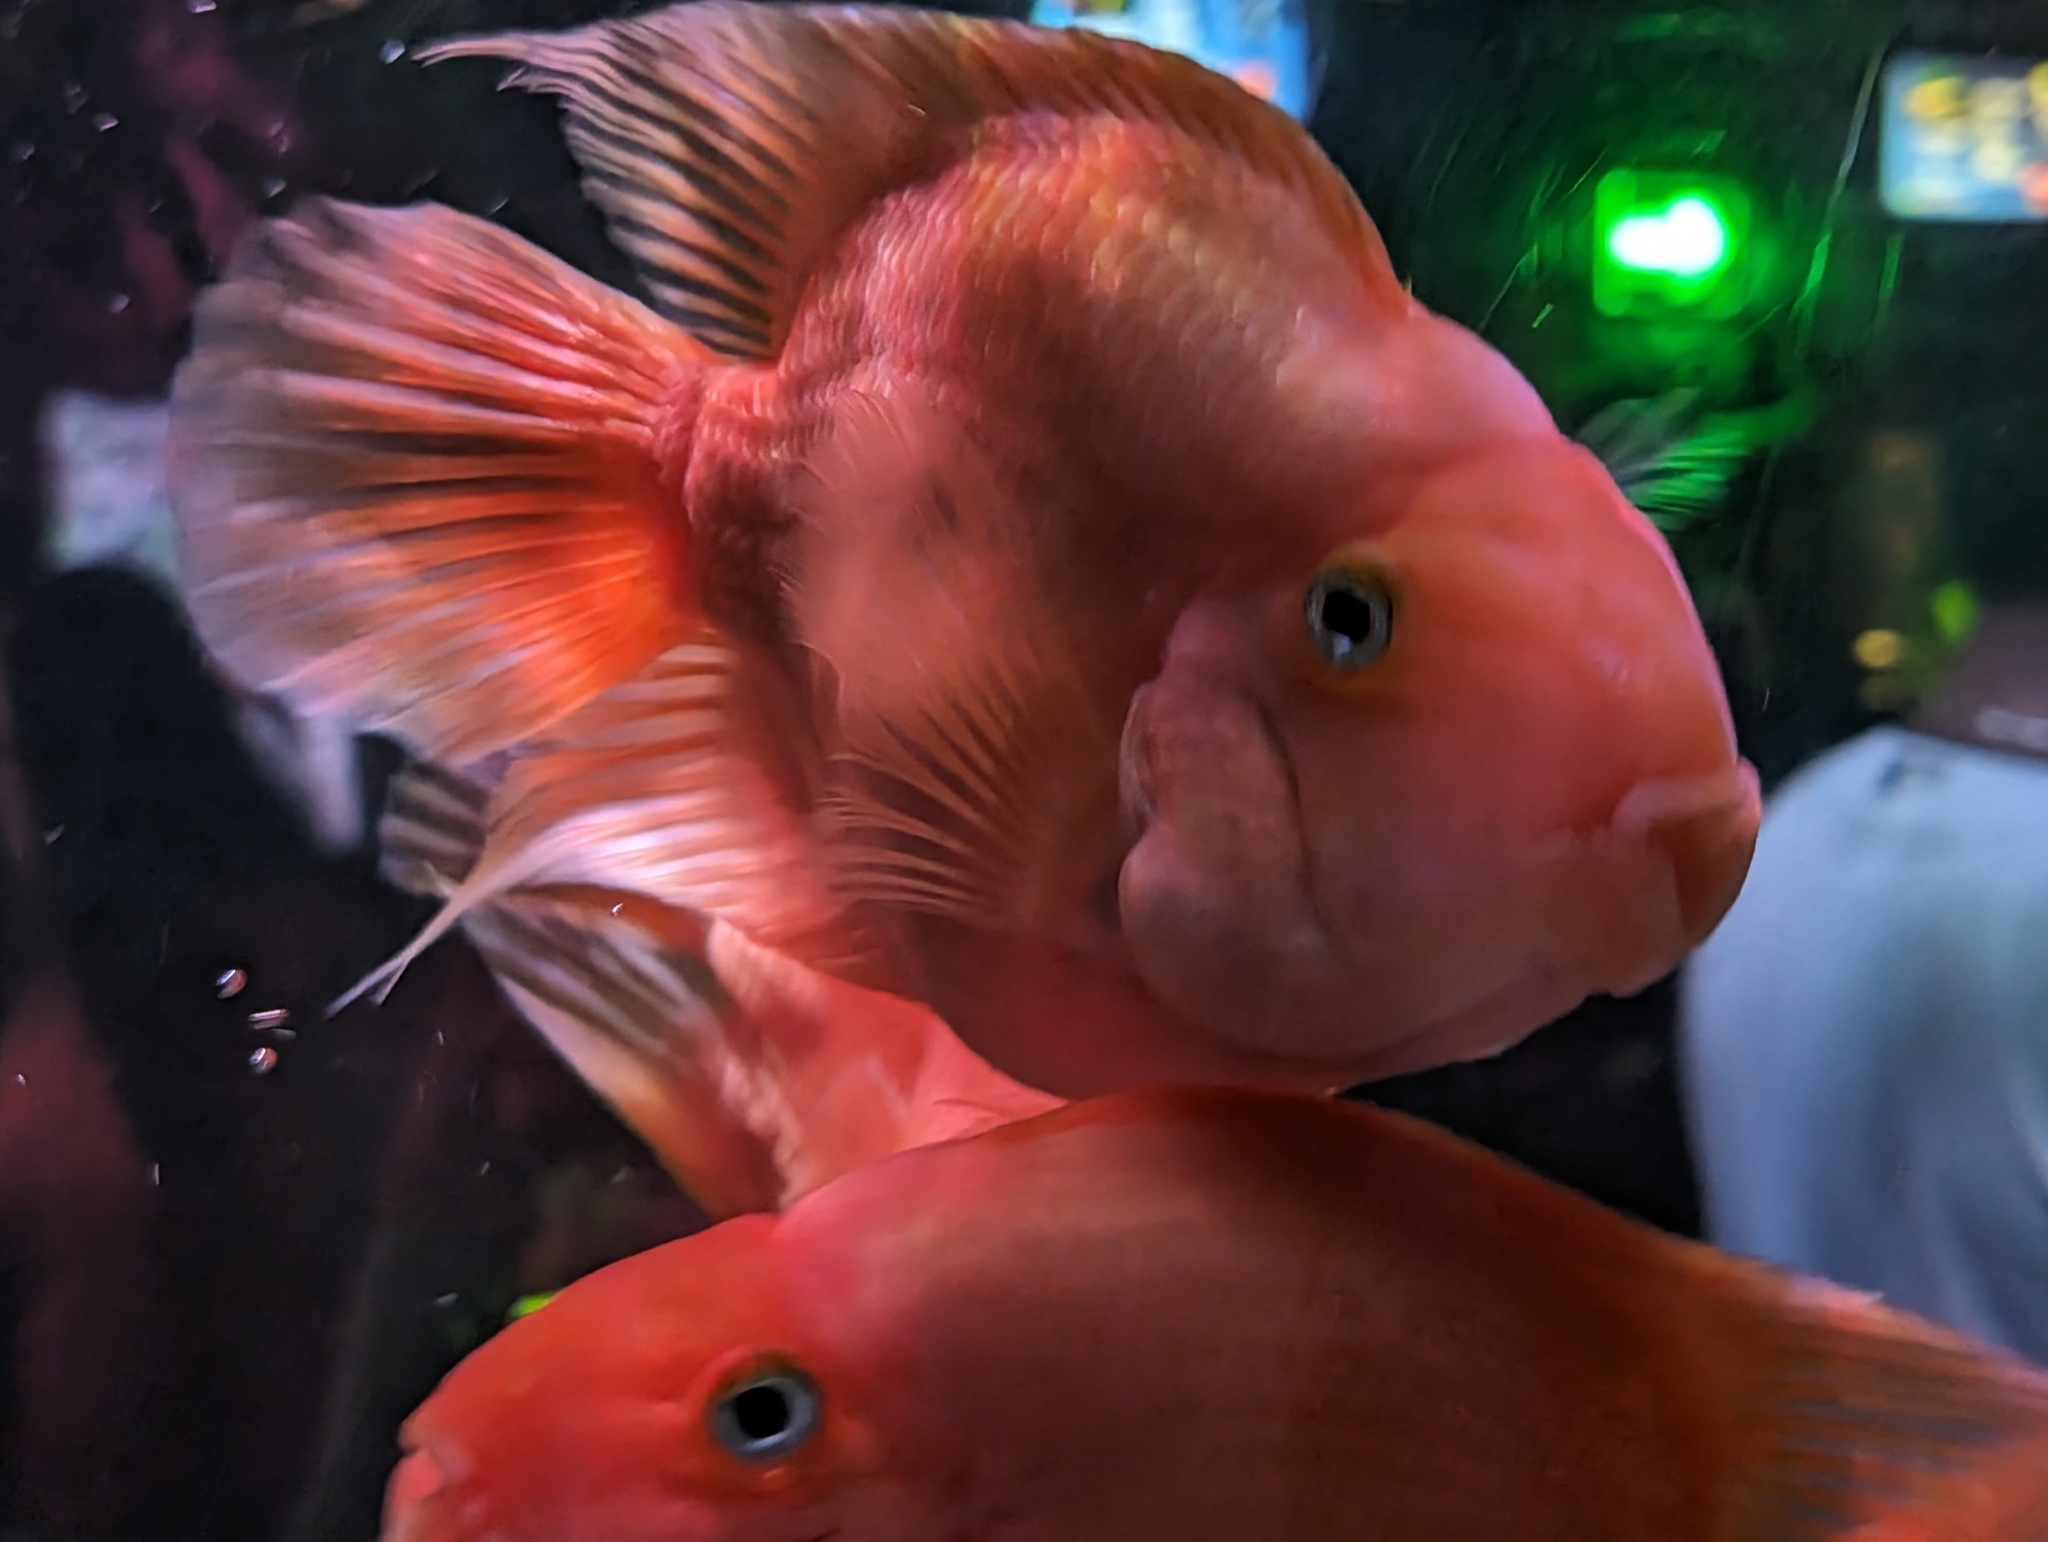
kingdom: Animalia
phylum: Chordata
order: Perciformes
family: Cichlidae
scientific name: Cichlidae
